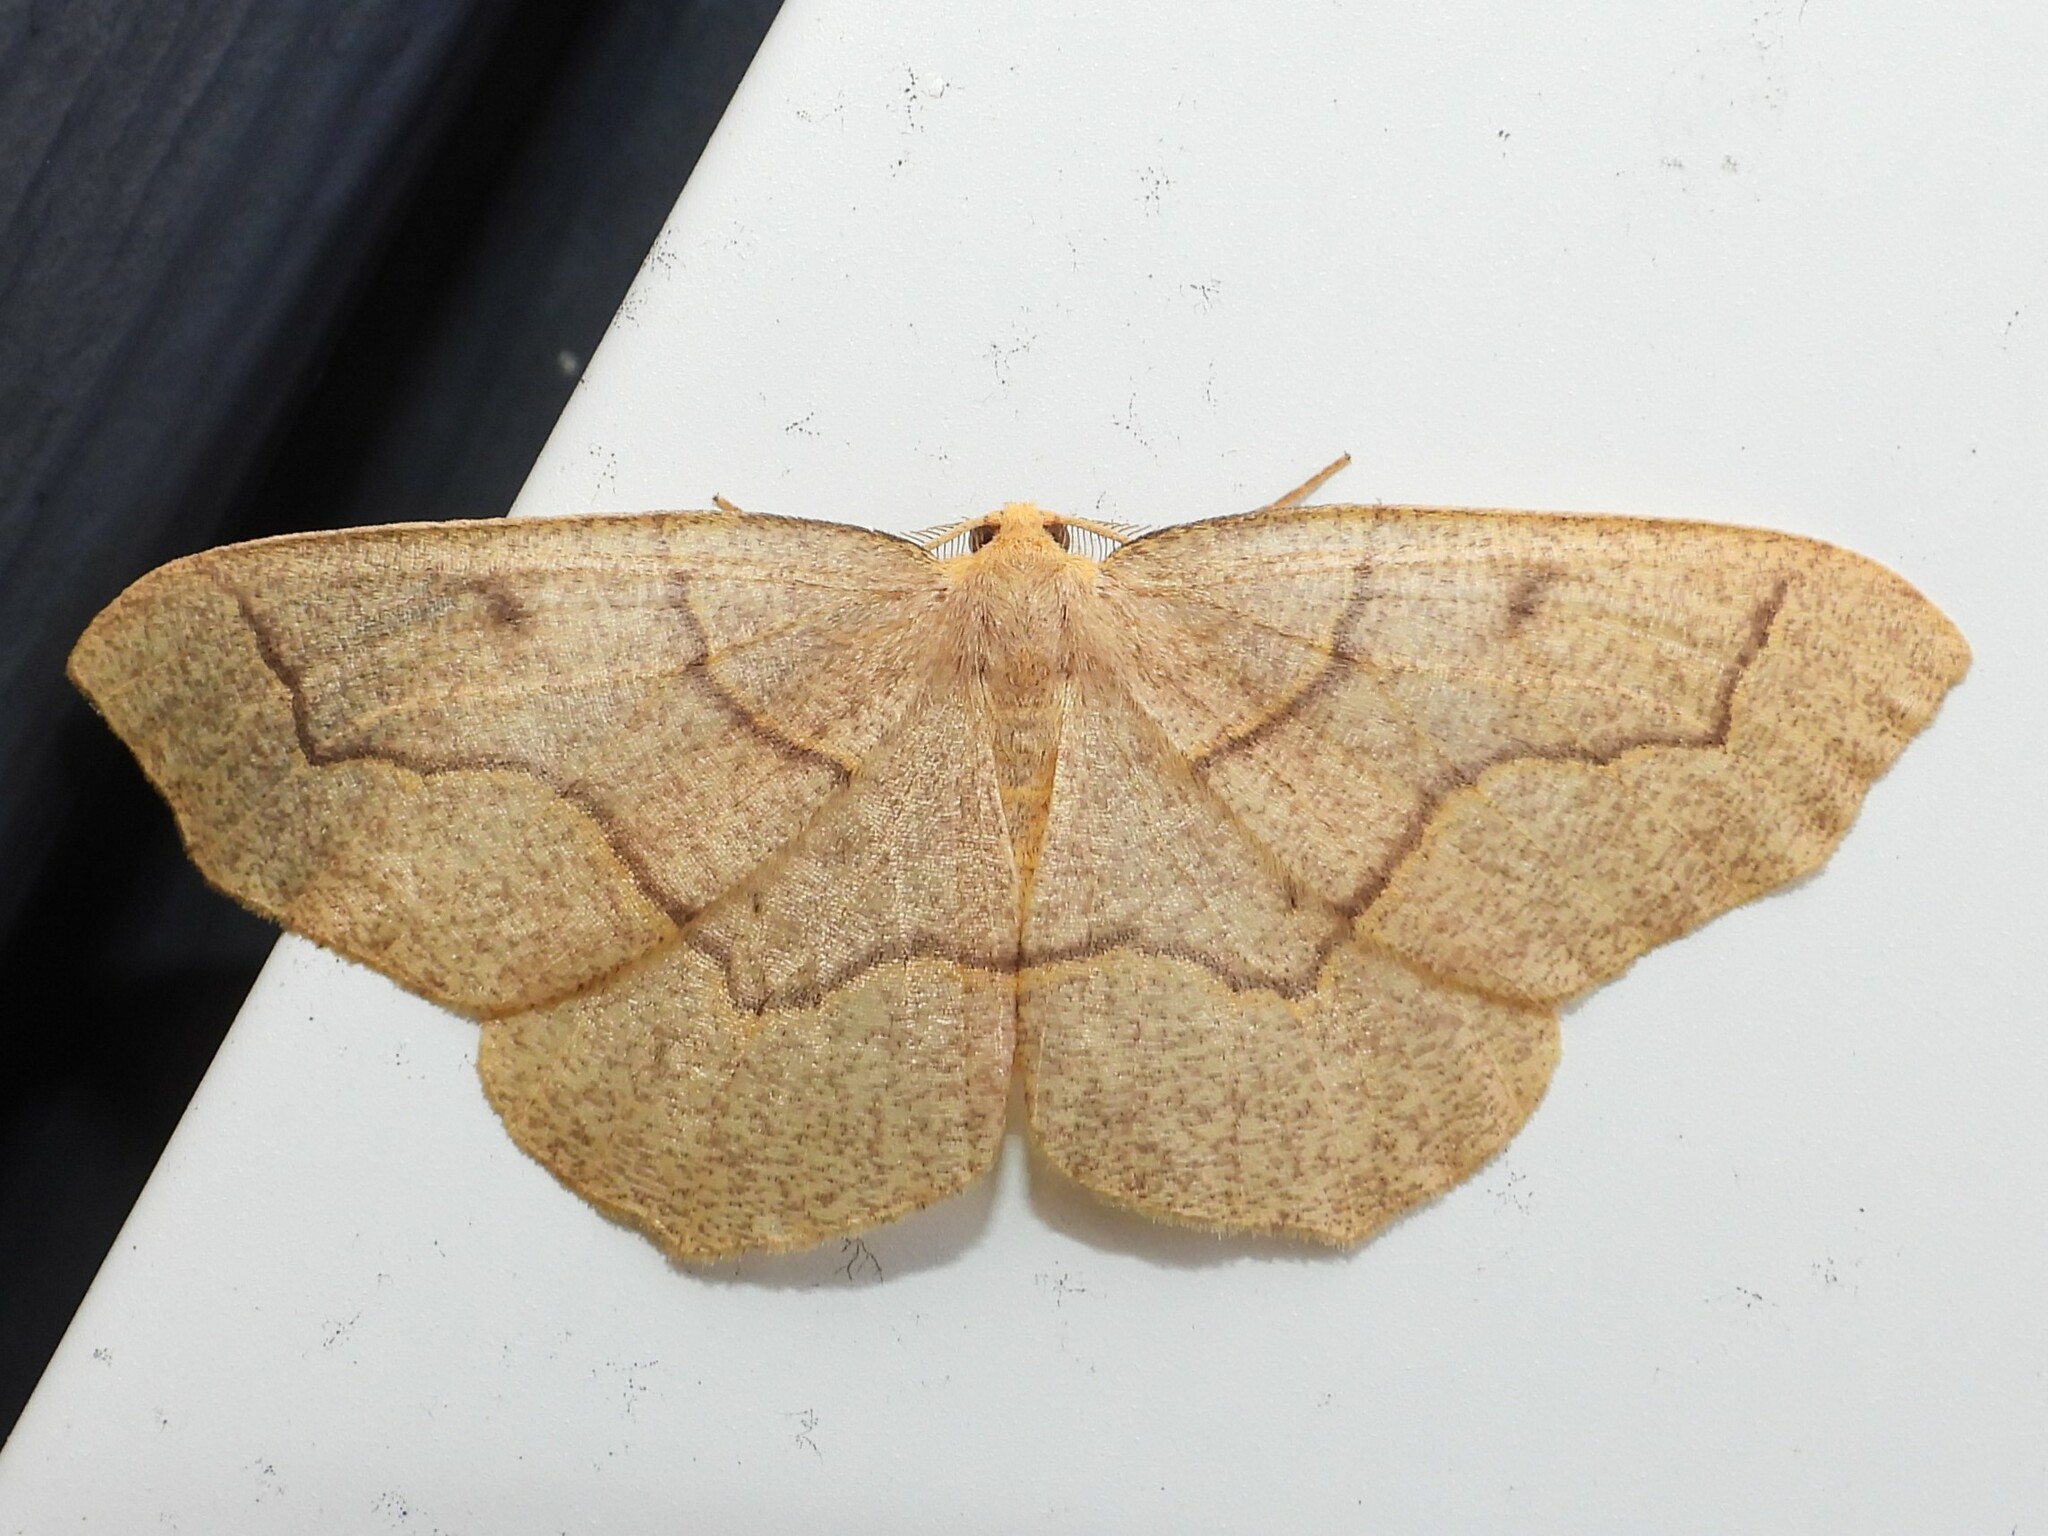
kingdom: Animalia
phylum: Arthropoda
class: Insecta
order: Lepidoptera
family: Geometridae
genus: Lambdina
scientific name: Lambdina fiscellaria
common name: Hemlock looper
